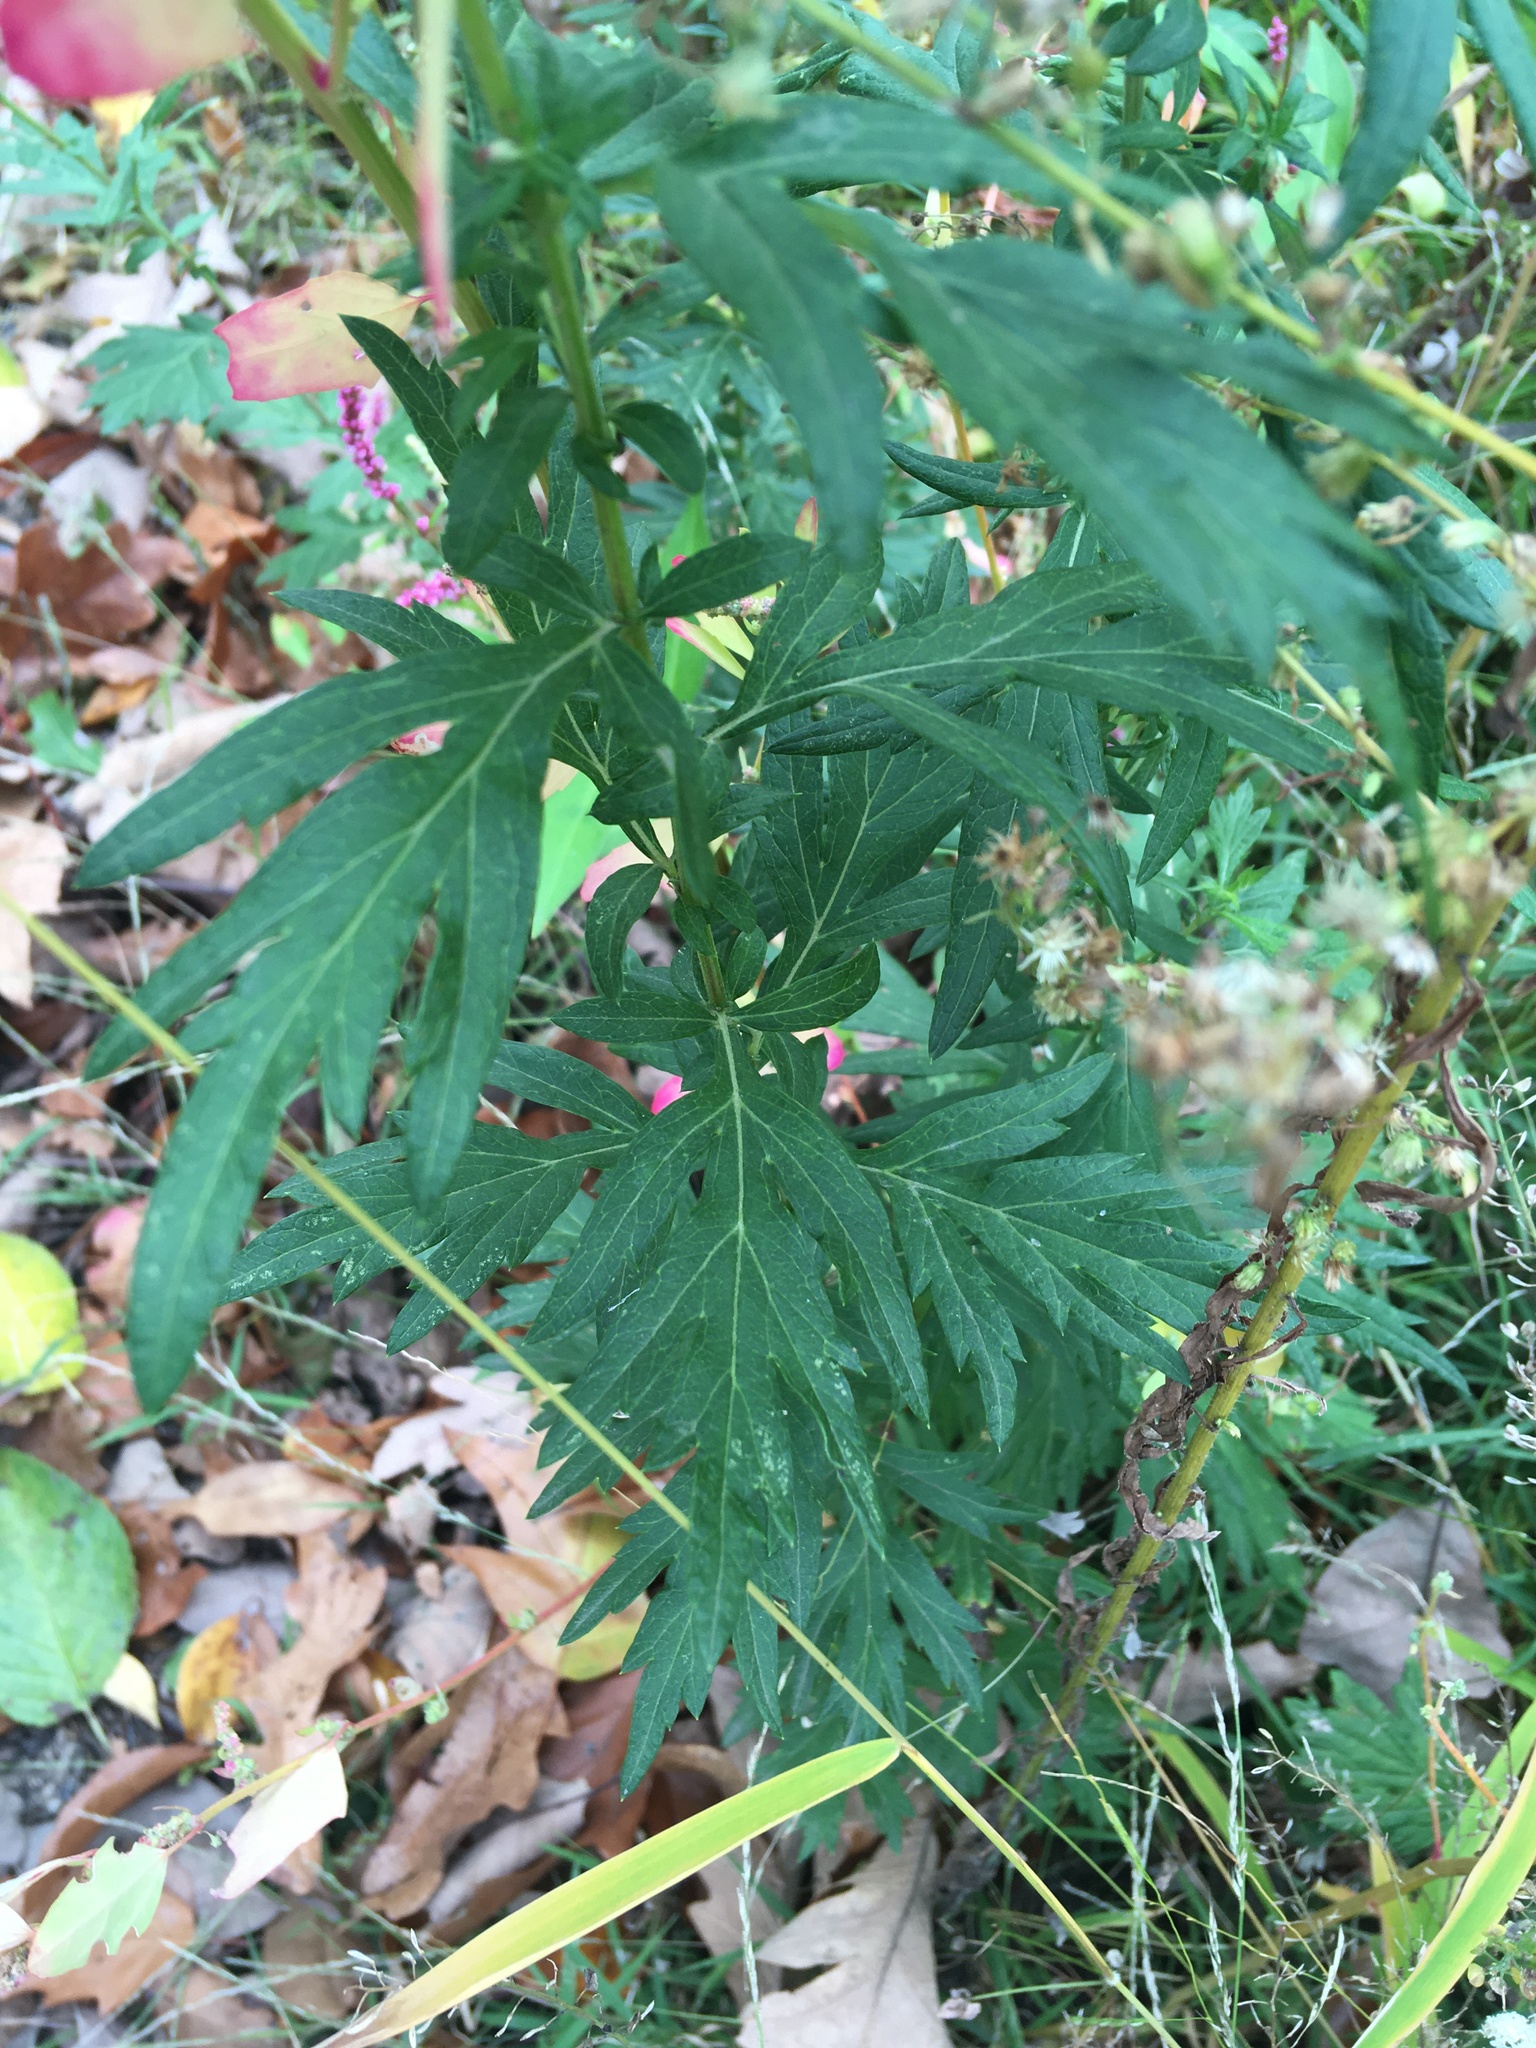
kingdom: Plantae
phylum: Tracheophyta
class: Magnoliopsida
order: Asterales
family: Asteraceae
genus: Artemisia
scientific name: Artemisia vulgaris
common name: Mugwort
